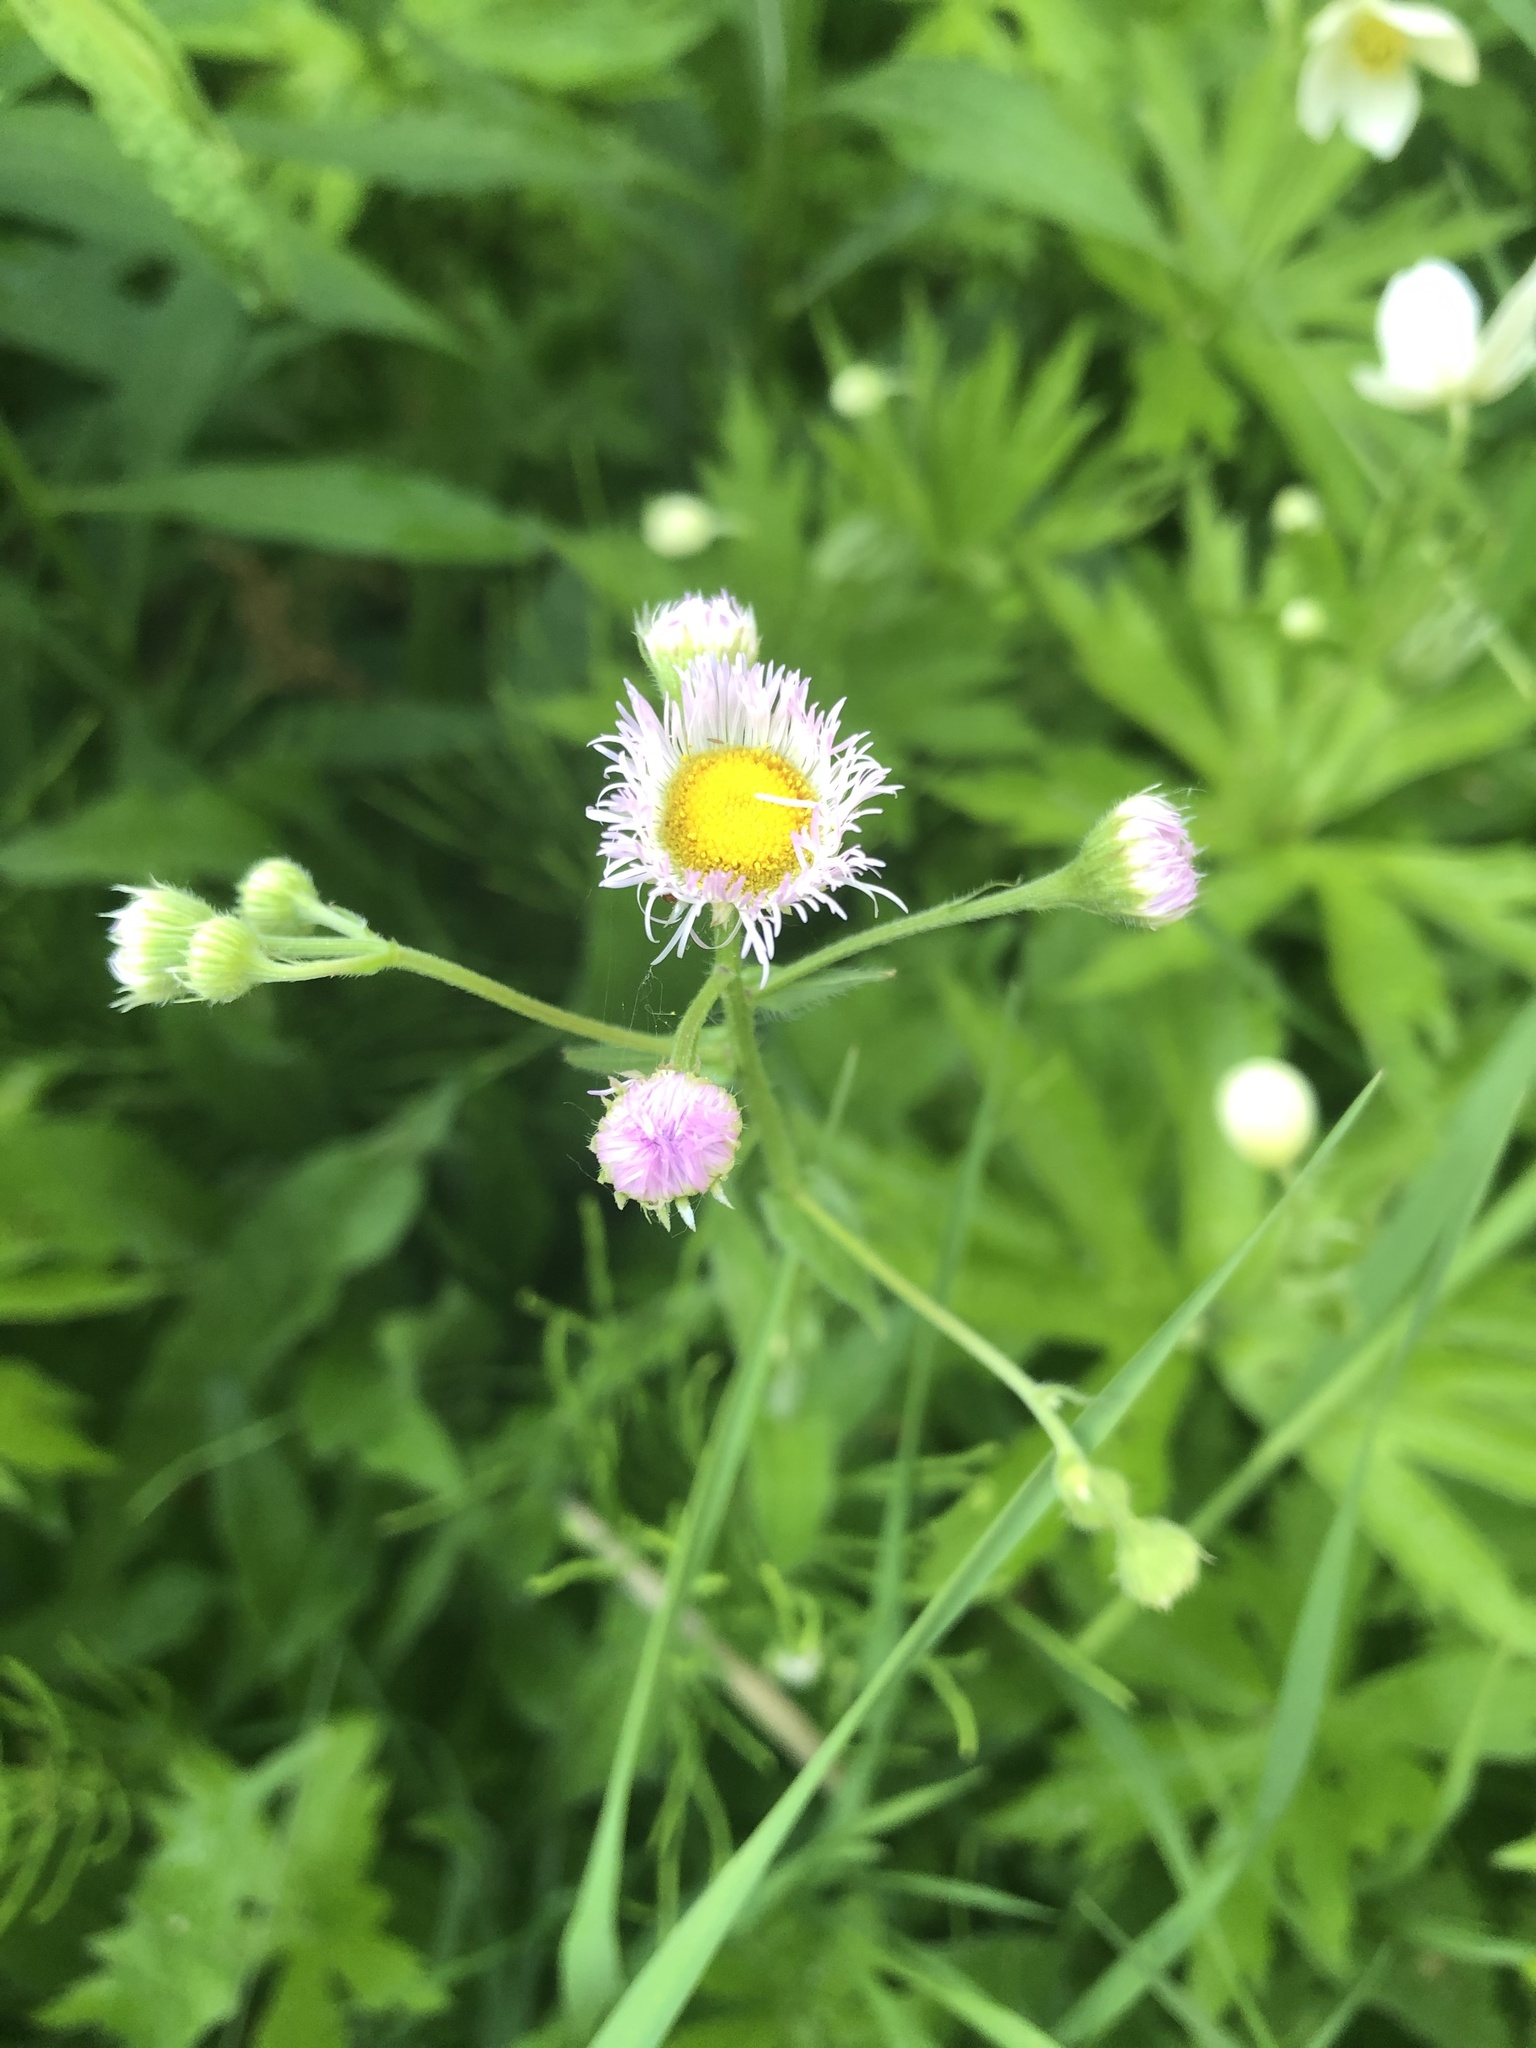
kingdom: Plantae
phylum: Tracheophyta
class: Magnoliopsida
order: Asterales
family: Asteraceae
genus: Erigeron
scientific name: Erigeron philadelphicus
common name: Robin's-plantain
